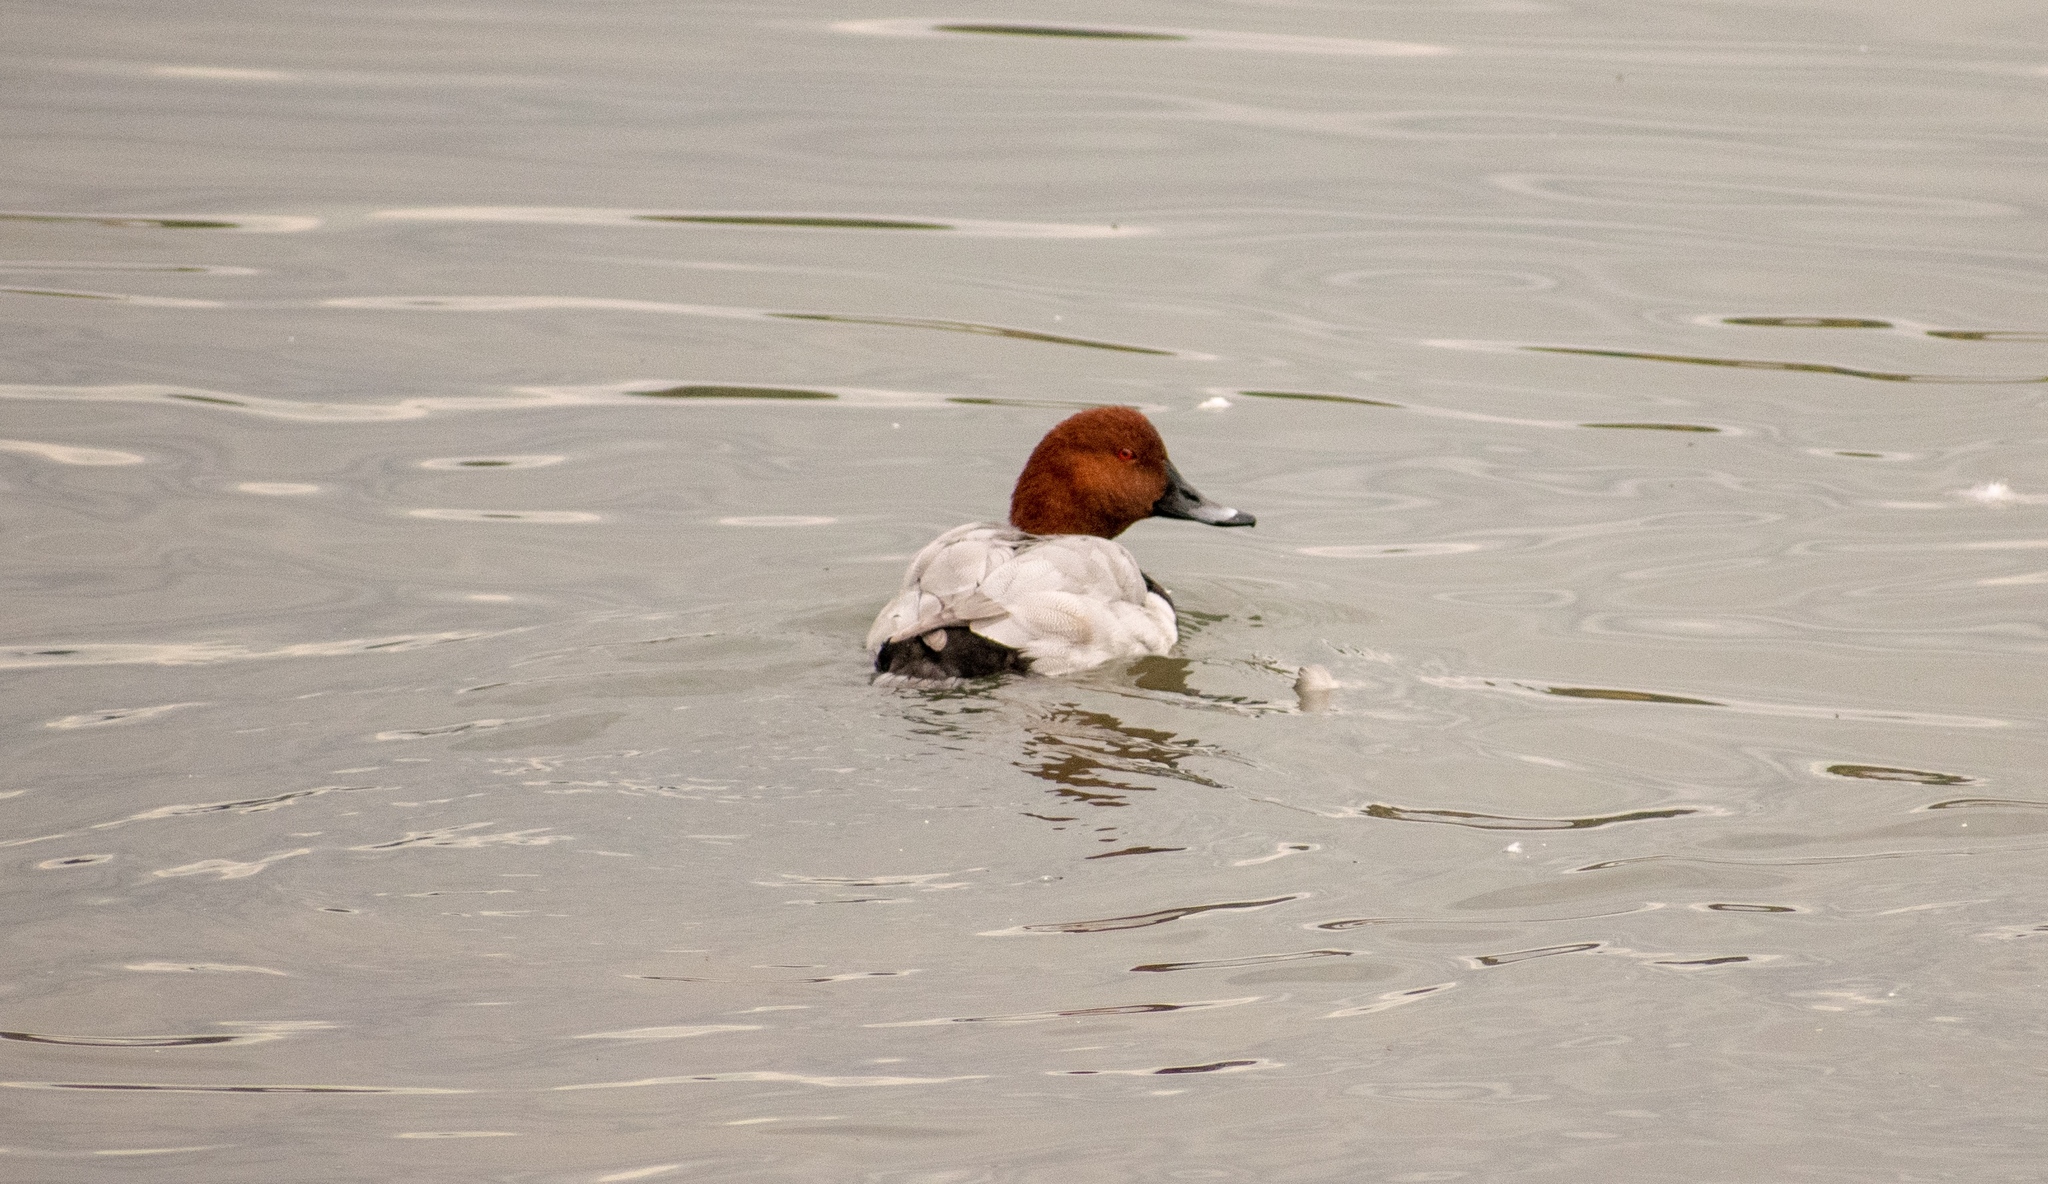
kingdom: Animalia
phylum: Chordata
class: Aves
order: Anseriformes
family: Anatidae
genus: Aythya
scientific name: Aythya ferina
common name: Common pochard
